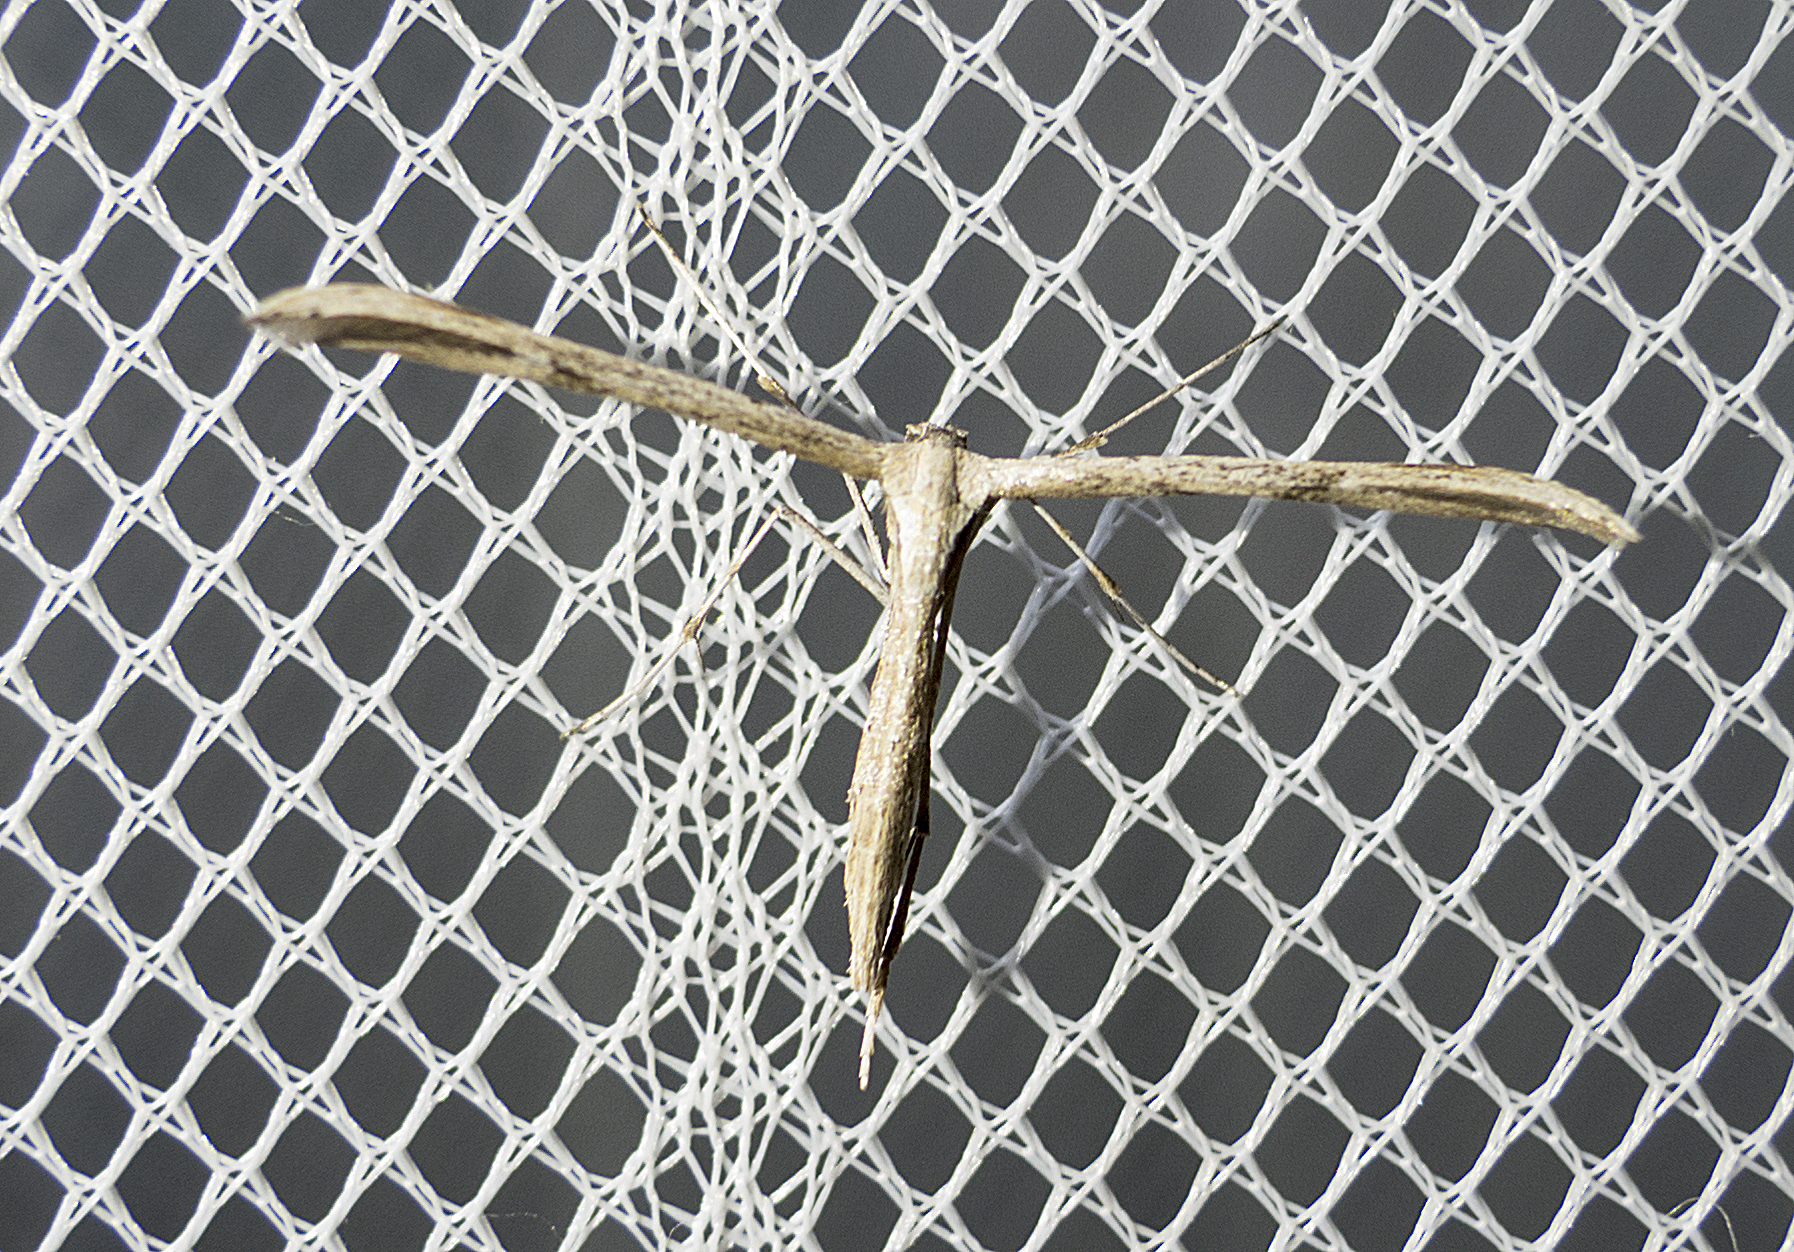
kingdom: Animalia
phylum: Arthropoda
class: Insecta
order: Lepidoptera
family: Pterophoridae
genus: Emmelina
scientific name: Emmelina monodactyla
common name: Common plume
